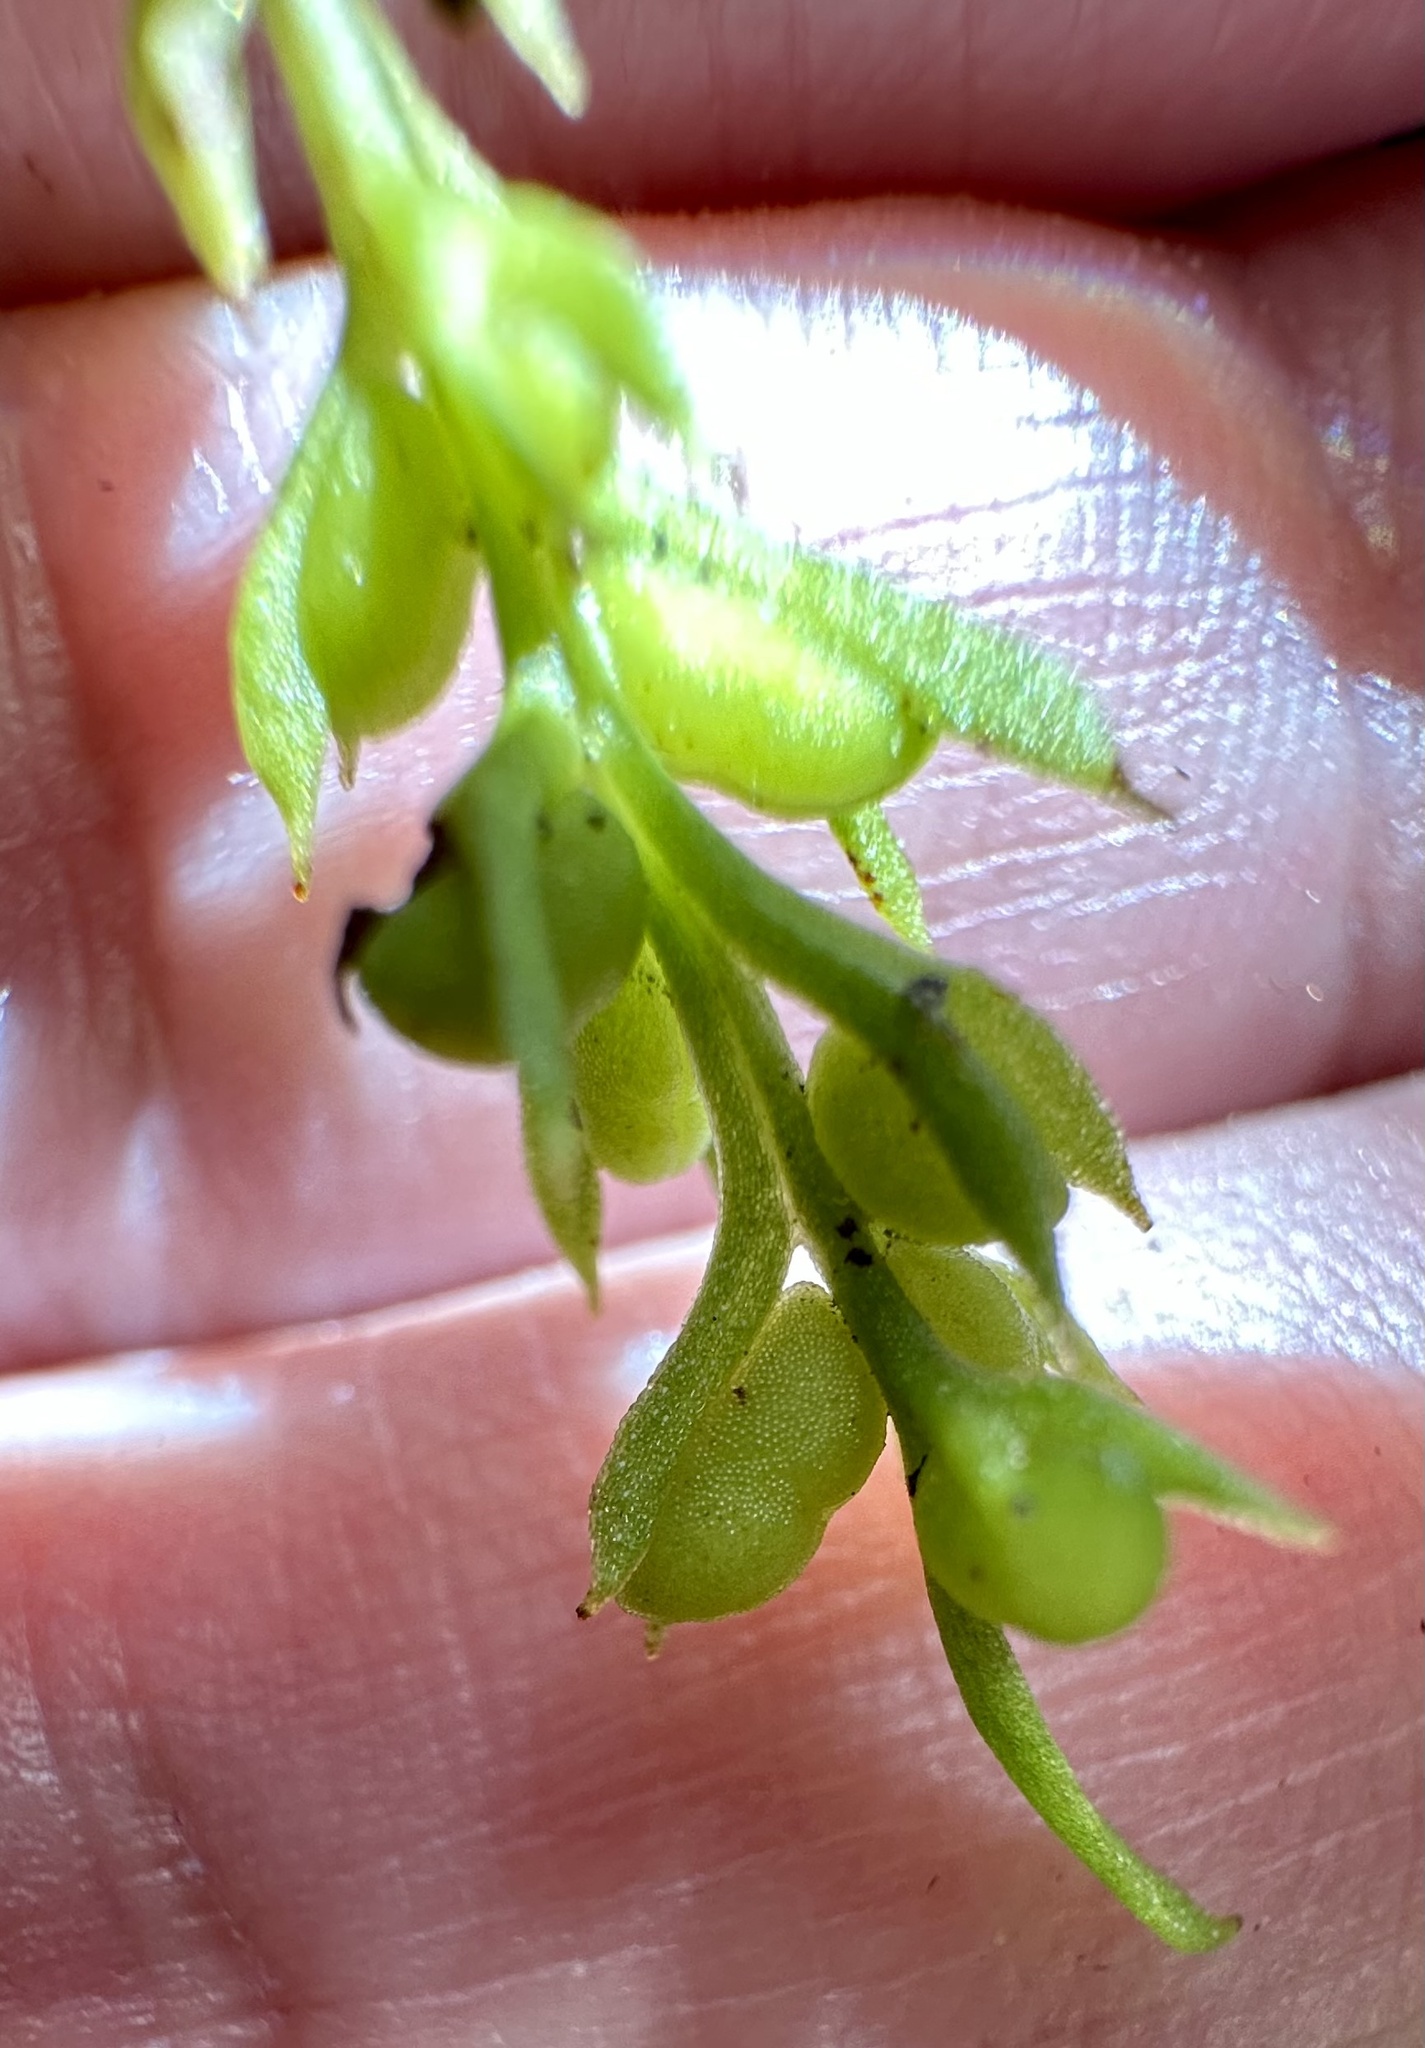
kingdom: Plantae
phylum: Tracheophyta
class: Polypodiopsida
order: Psilotales
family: Psilotaceae
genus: Tmesipteris
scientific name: Tmesipteris elongata
